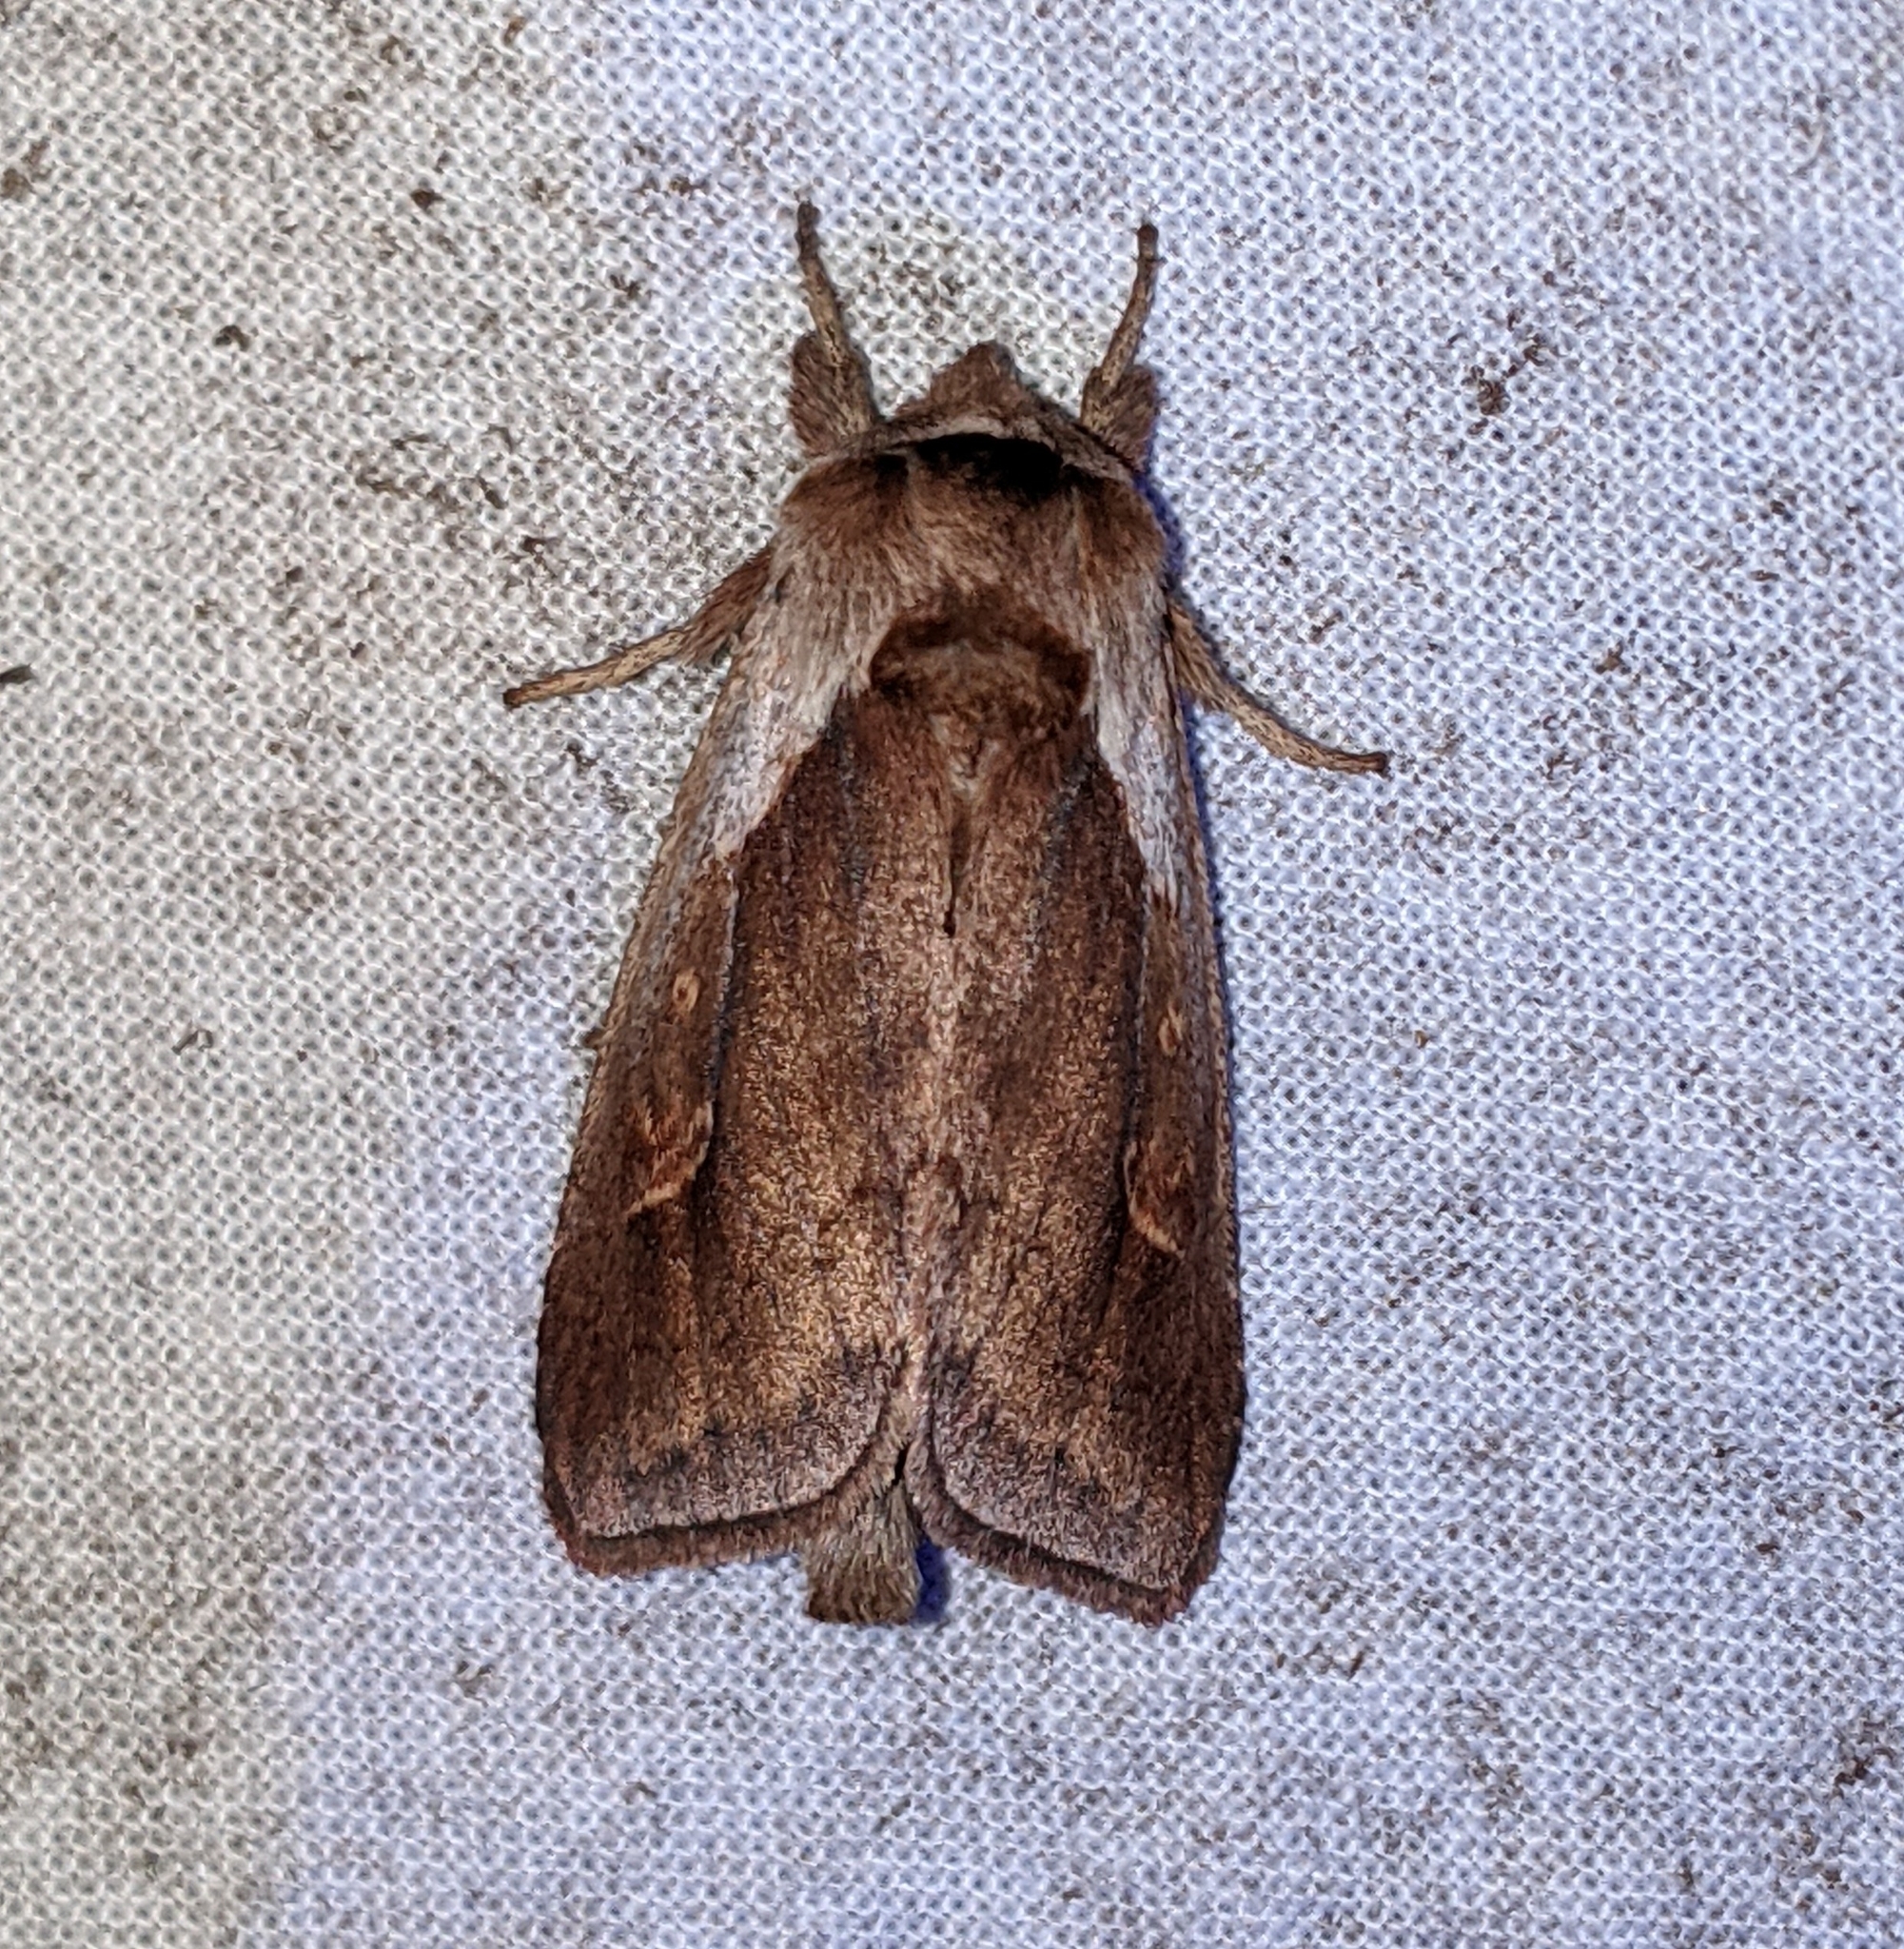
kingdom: Animalia
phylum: Arthropoda
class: Insecta
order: Lepidoptera
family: Noctuidae
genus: Bellura
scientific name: Bellura obliqua
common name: Cattail borer moth
